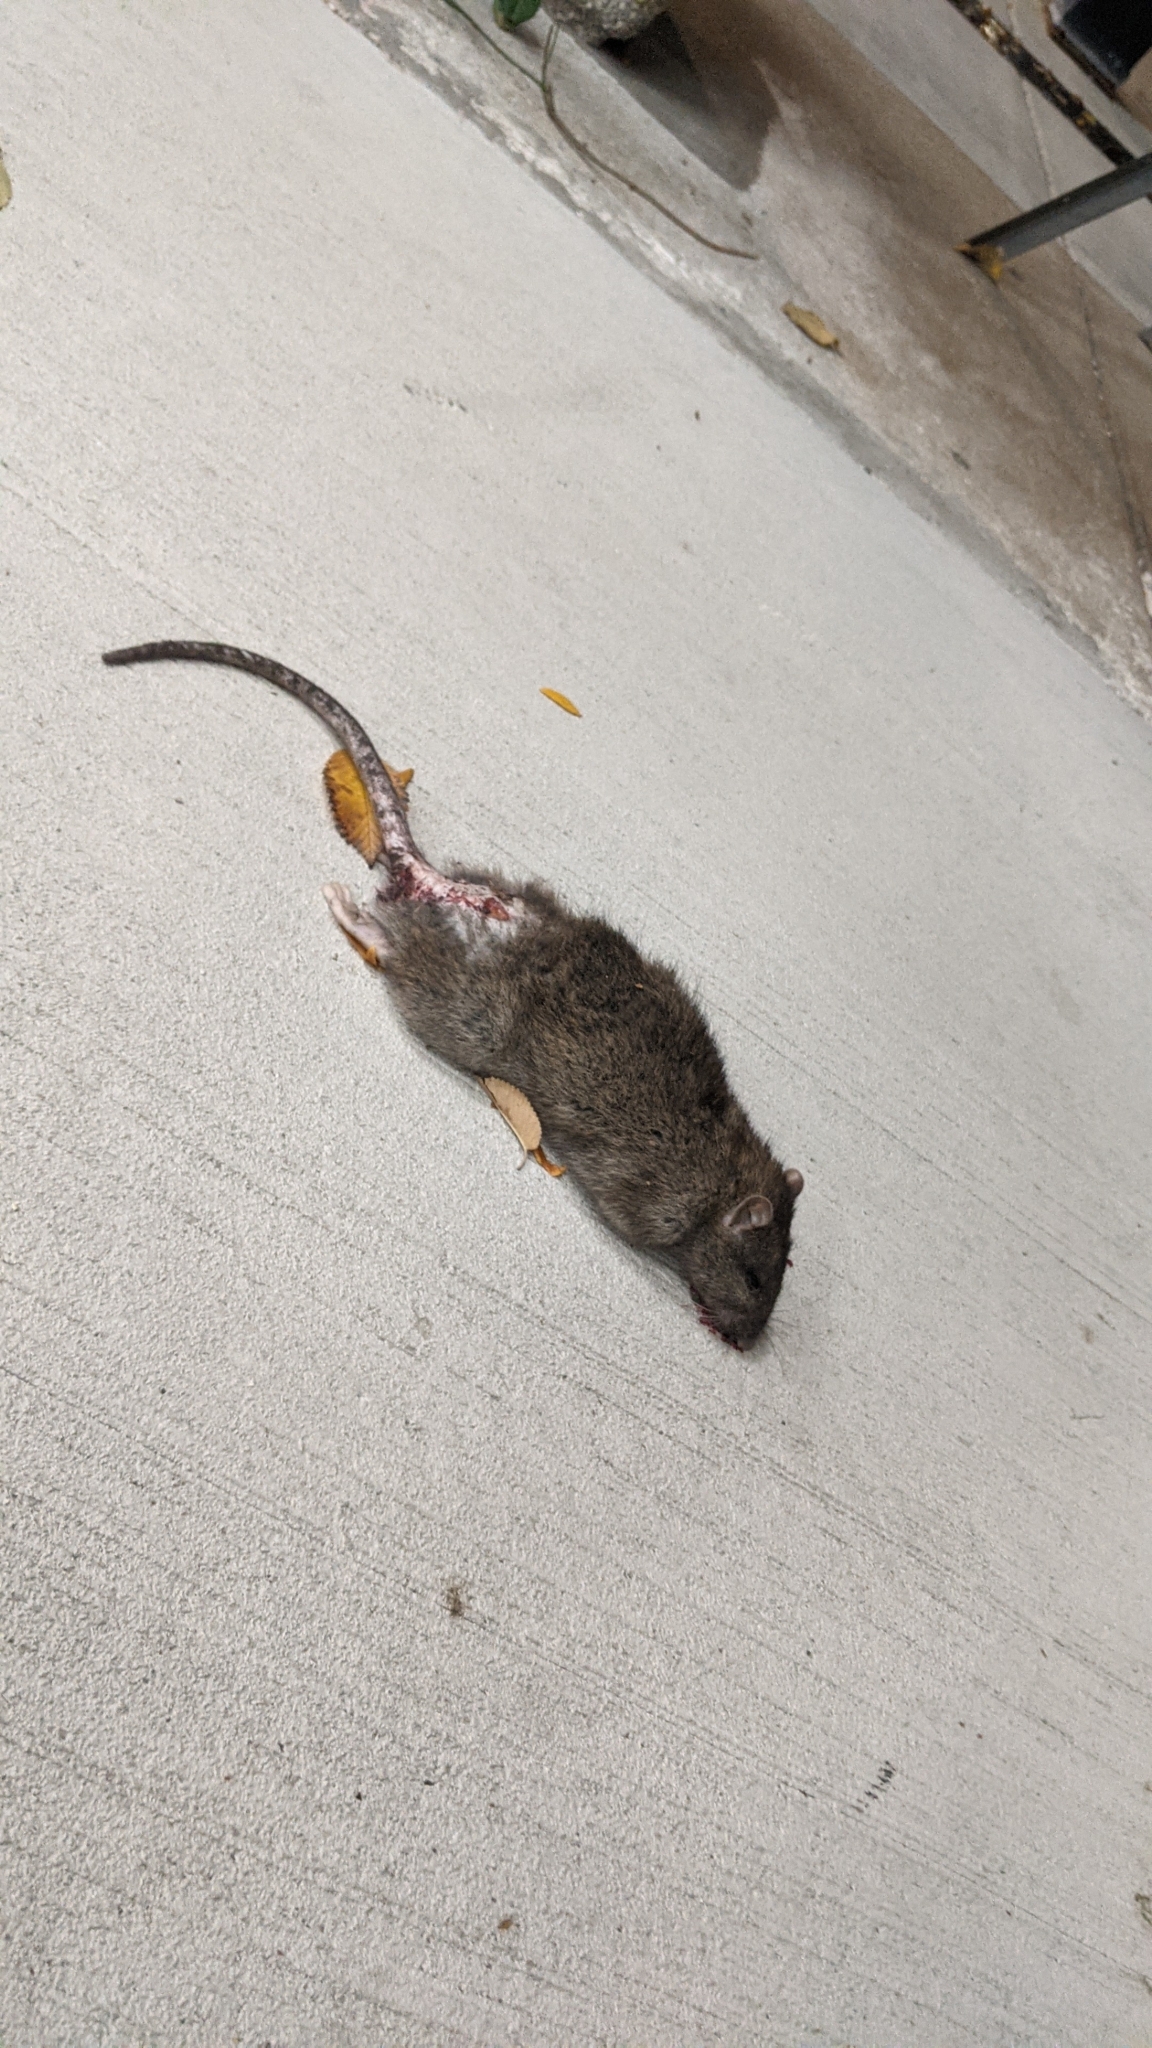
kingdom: Animalia
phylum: Chordata
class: Mammalia
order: Rodentia
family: Muridae
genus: Rattus
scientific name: Rattus norvegicus
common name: Brown rat
